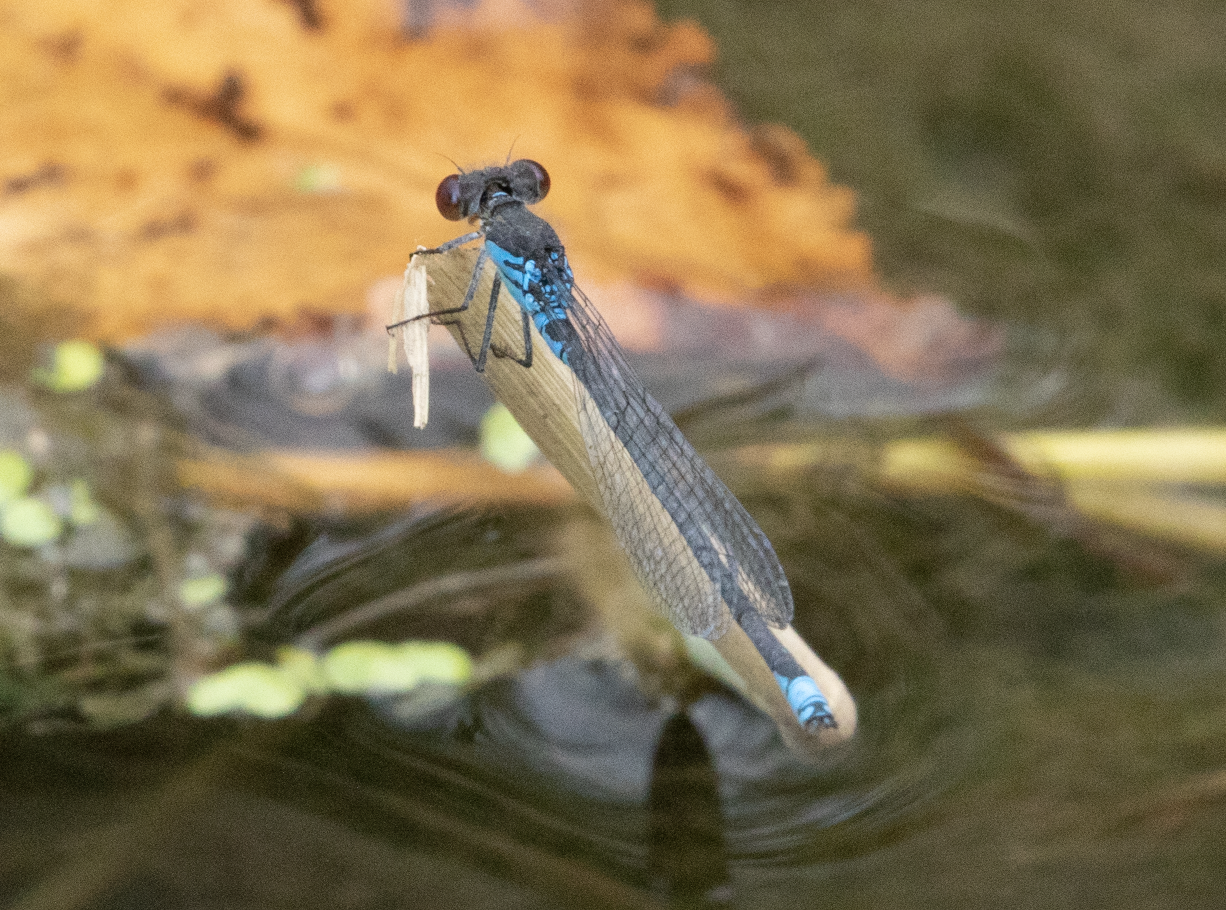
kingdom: Animalia
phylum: Arthropoda
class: Insecta
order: Odonata
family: Coenagrionidae
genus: Erythromma
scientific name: Erythromma viridulum
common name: Small red-eyed damselfly
